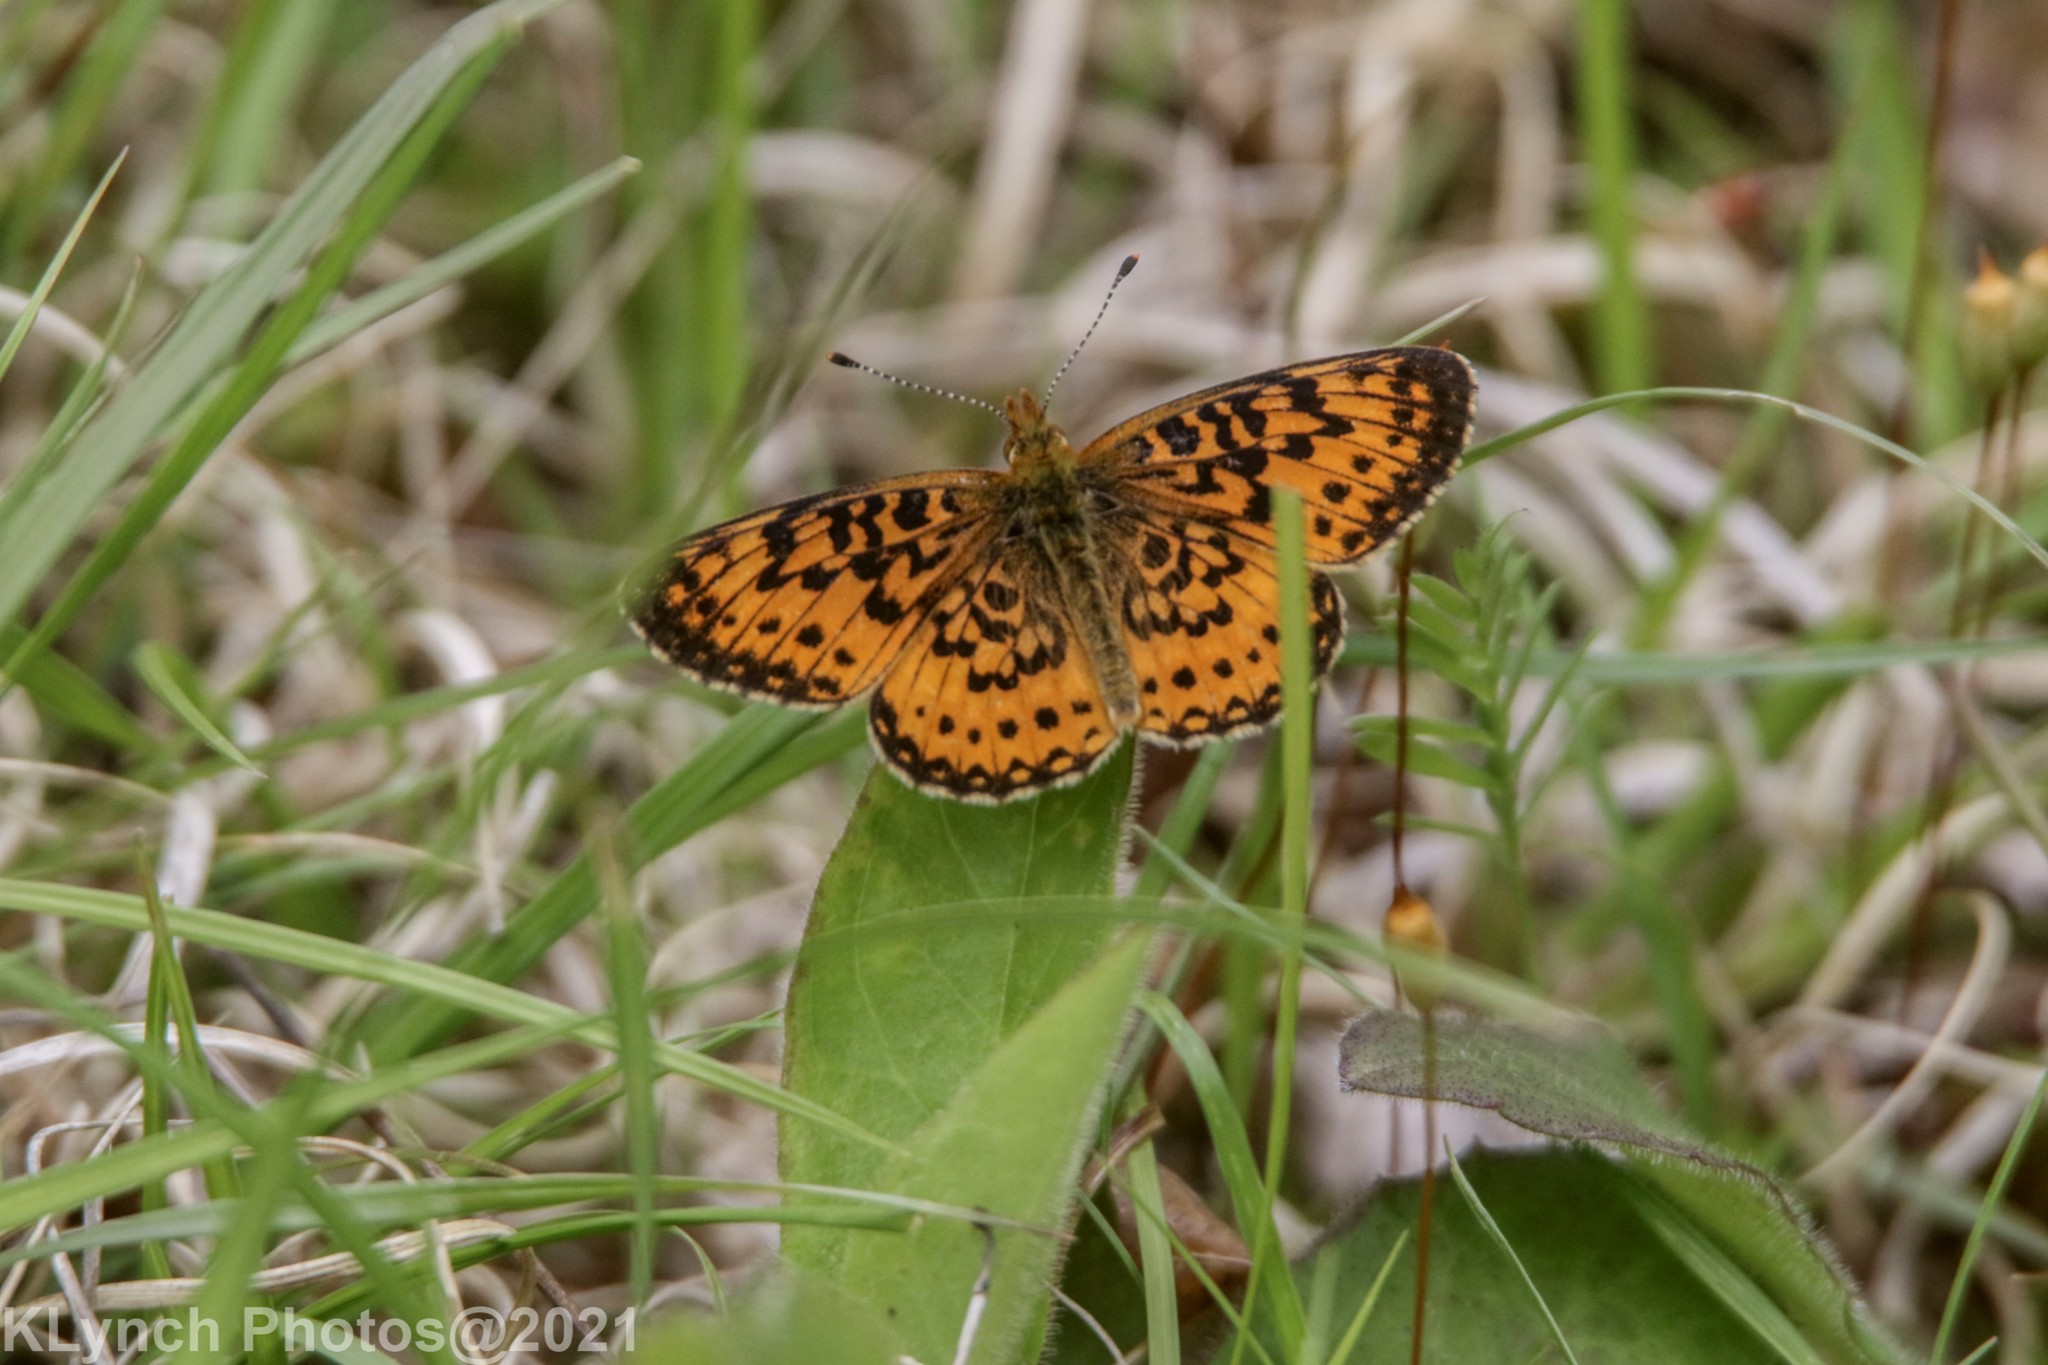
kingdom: Animalia
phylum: Arthropoda
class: Insecta
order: Lepidoptera
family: Nymphalidae
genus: Boloria
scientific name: Boloria
